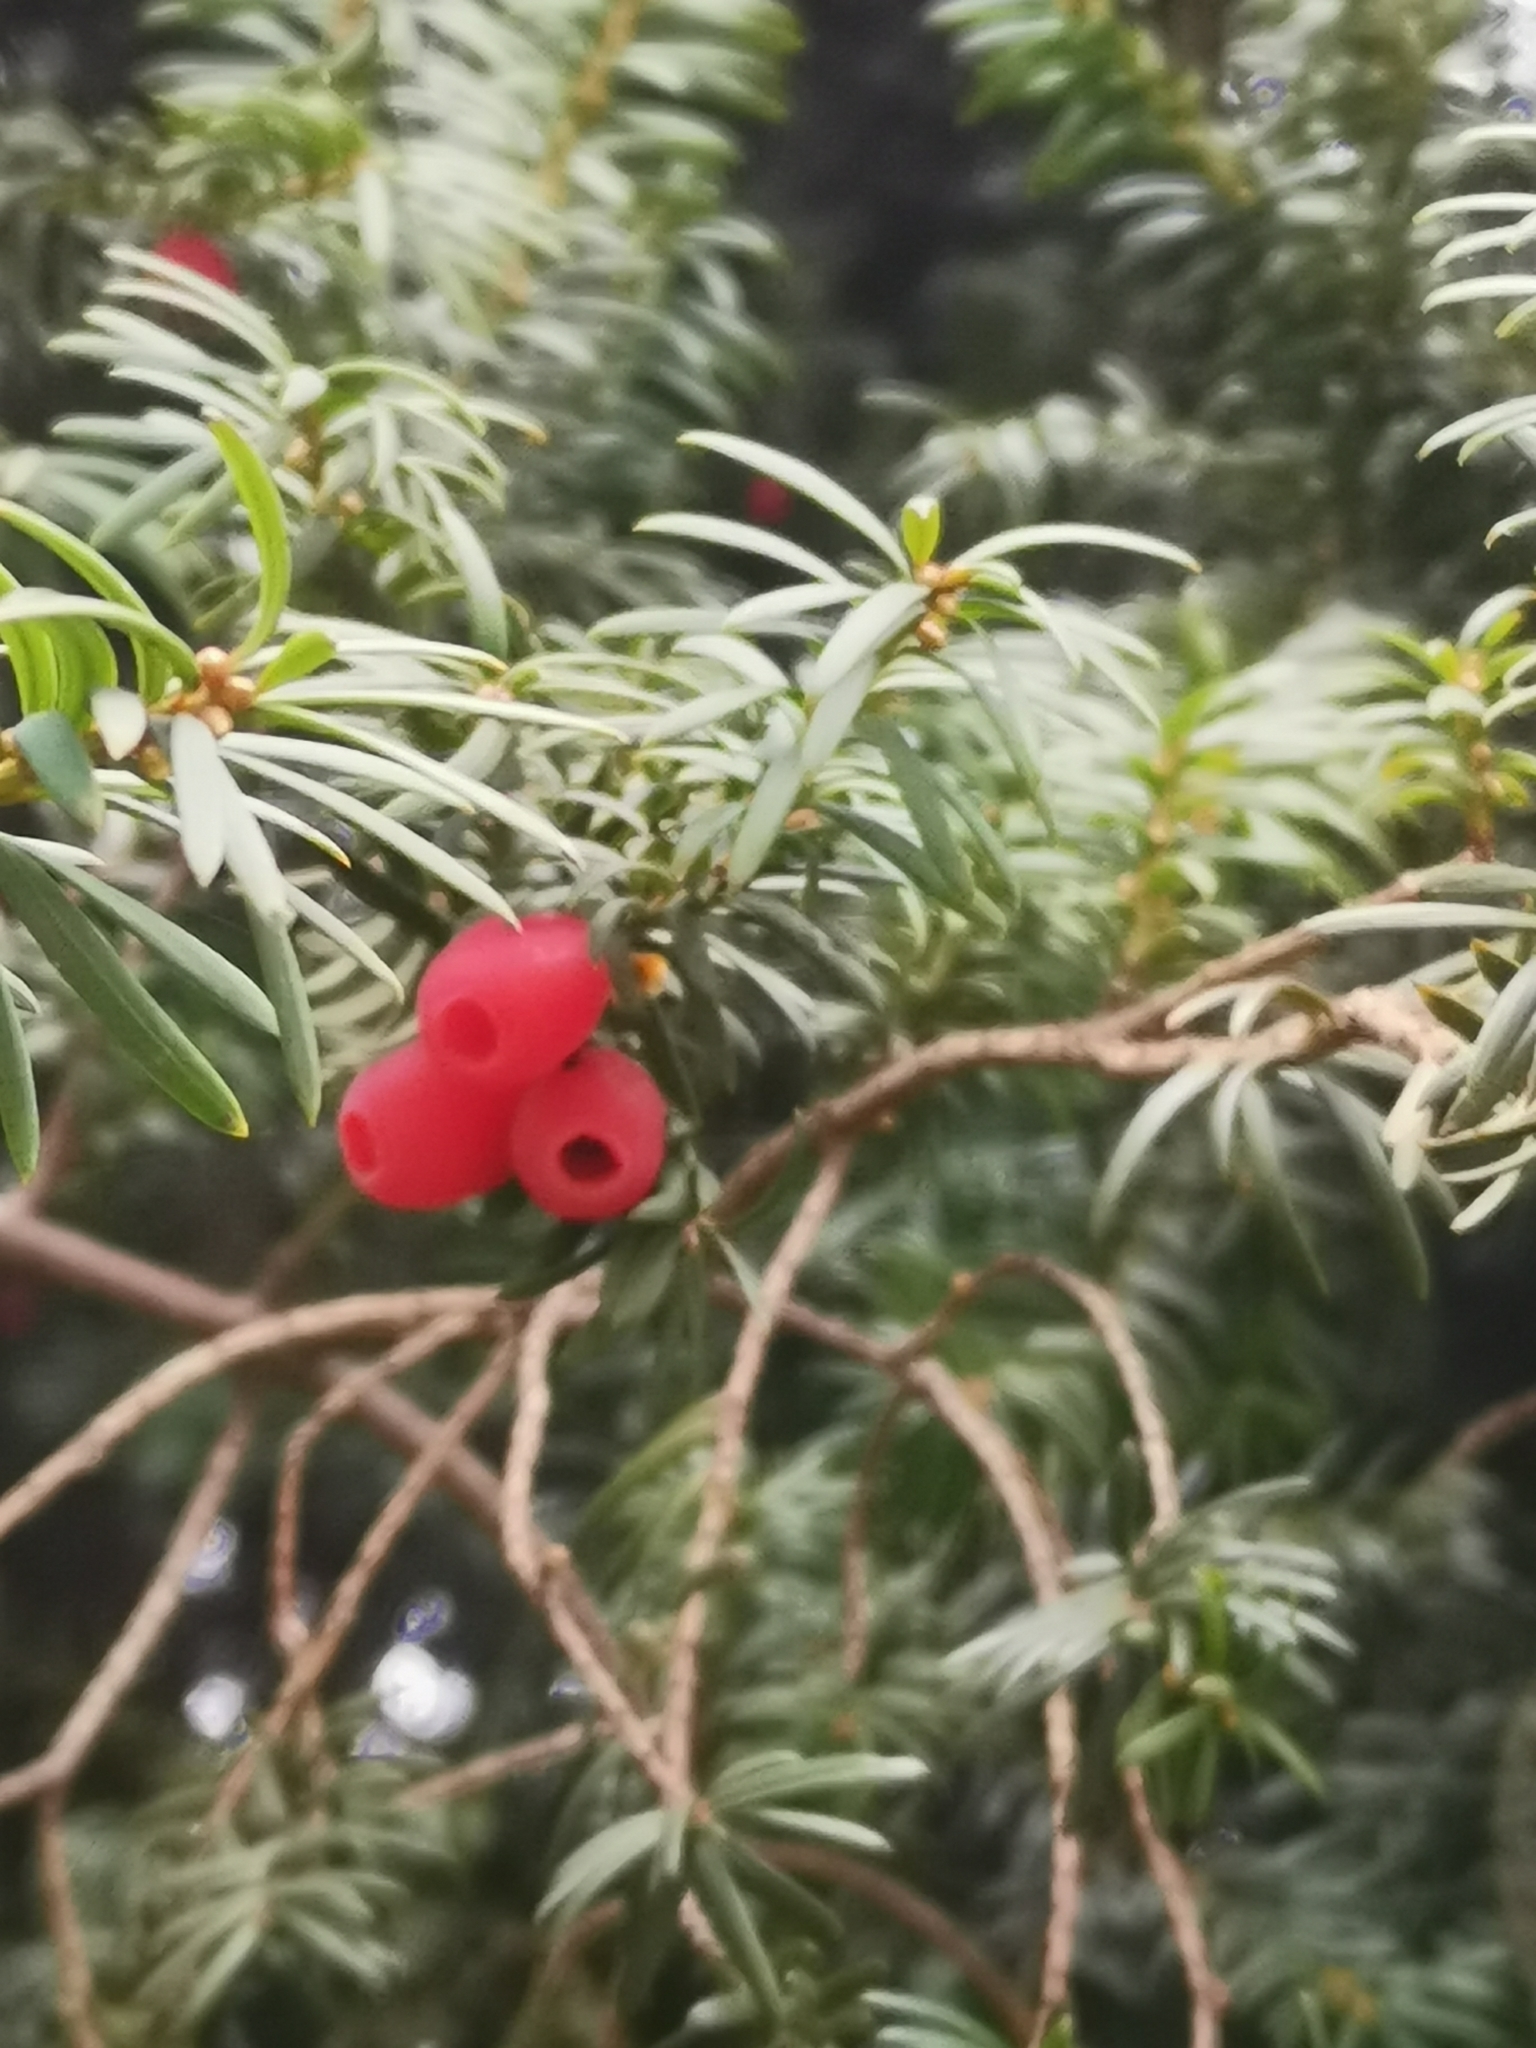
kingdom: Plantae
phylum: Tracheophyta
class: Pinopsida
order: Pinales
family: Taxaceae
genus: Taxus
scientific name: Taxus baccata
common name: Yew
